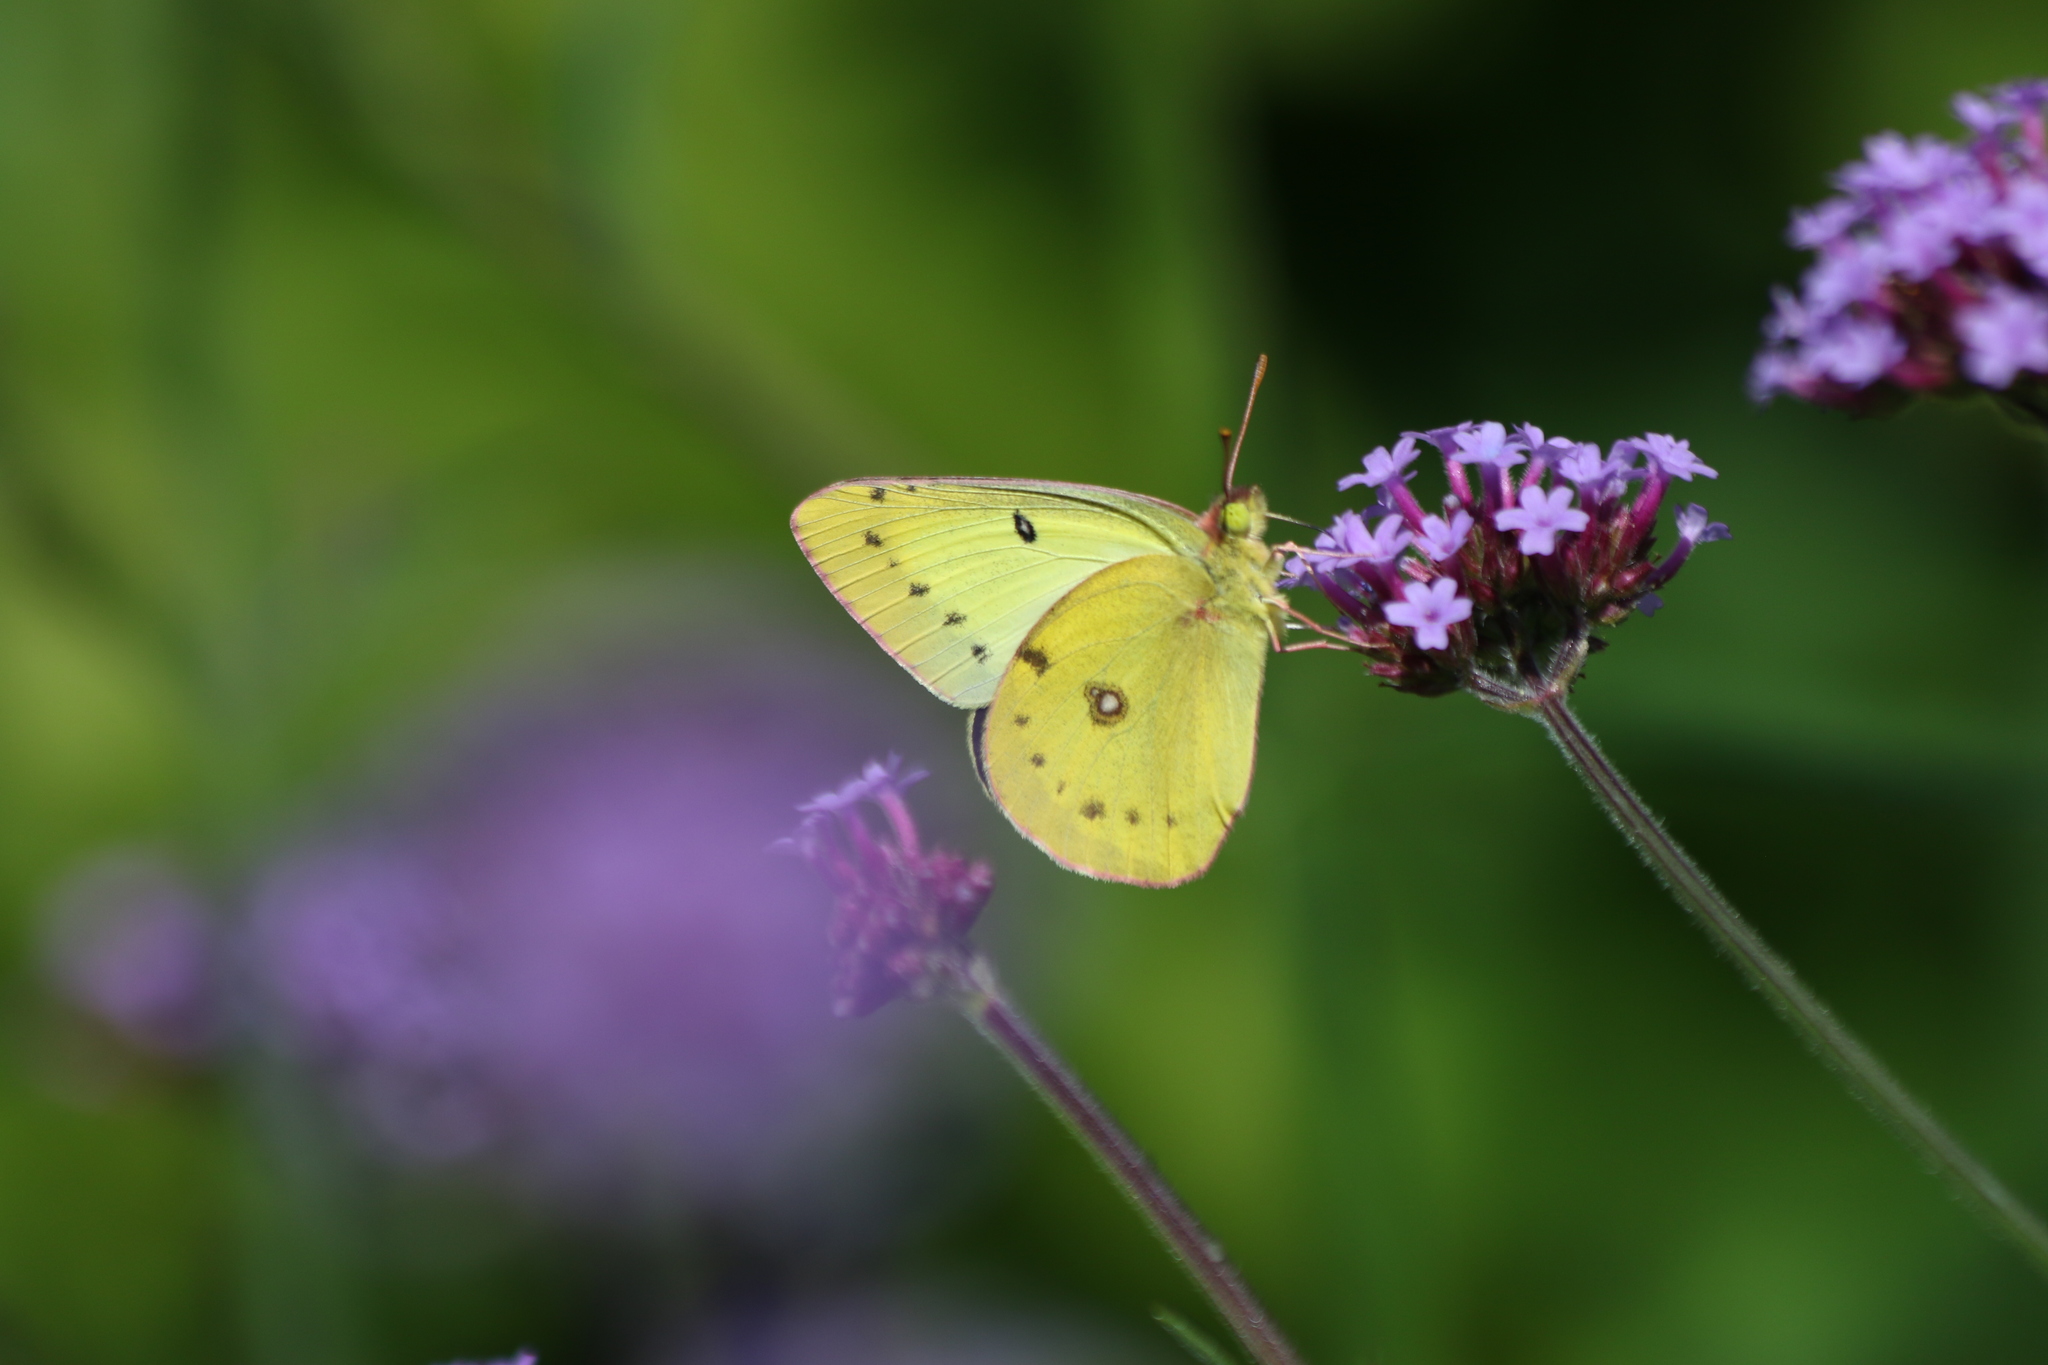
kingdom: Animalia
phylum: Arthropoda
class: Insecta
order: Lepidoptera
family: Pieridae
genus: Colias
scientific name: Colias philodice
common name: Clouded sulphur
